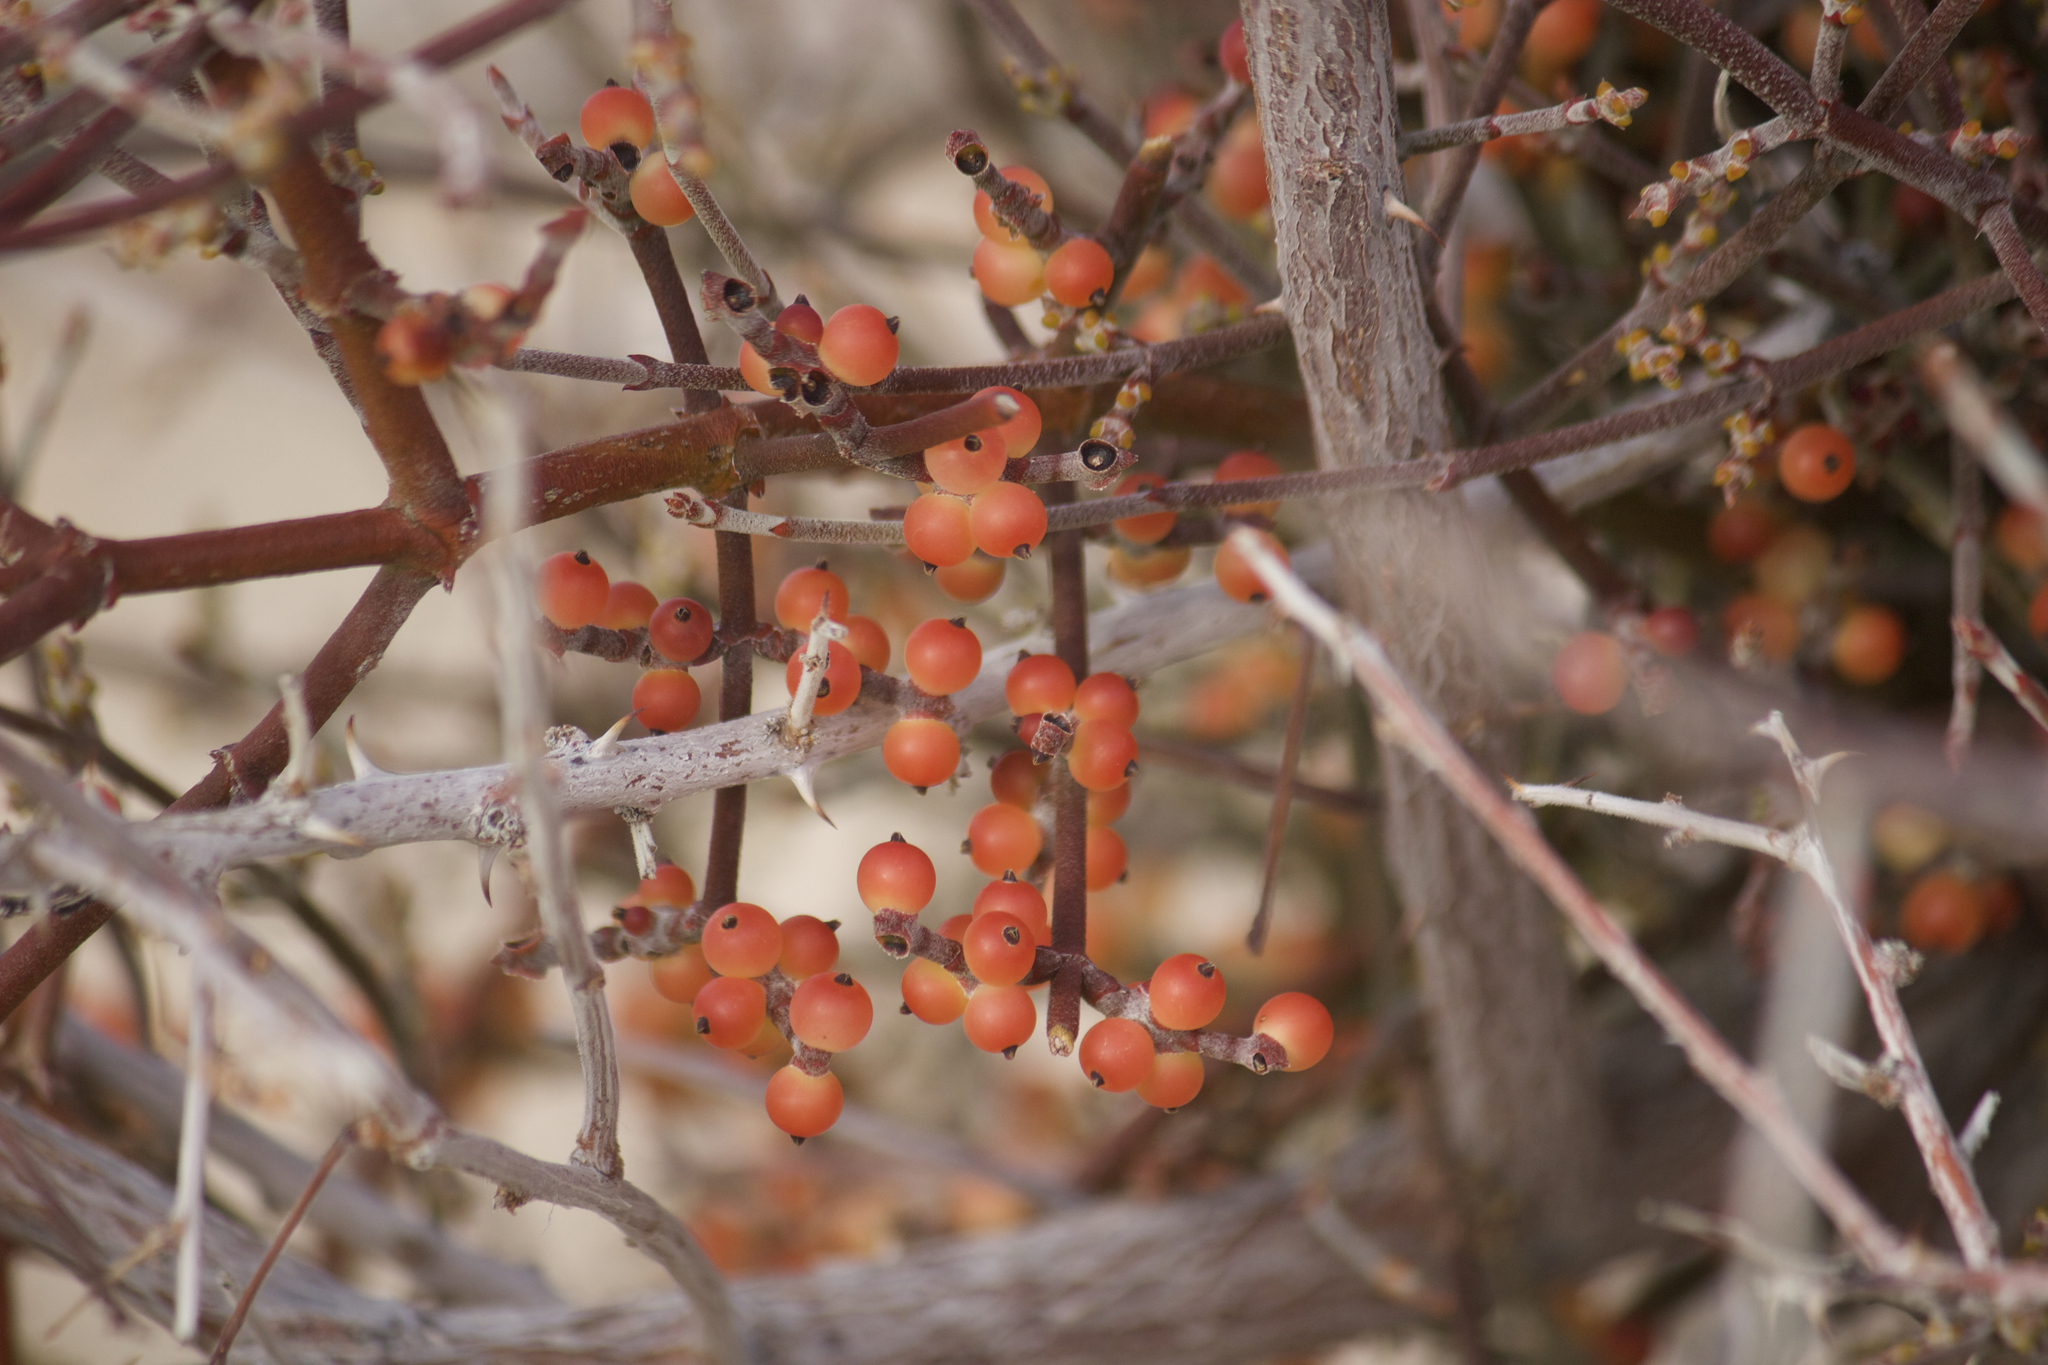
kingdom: Plantae
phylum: Tracheophyta
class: Magnoliopsida
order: Santalales
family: Viscaceae
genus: Phoradendron
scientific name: Phoradendron californicum
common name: Acacia mistletoe
